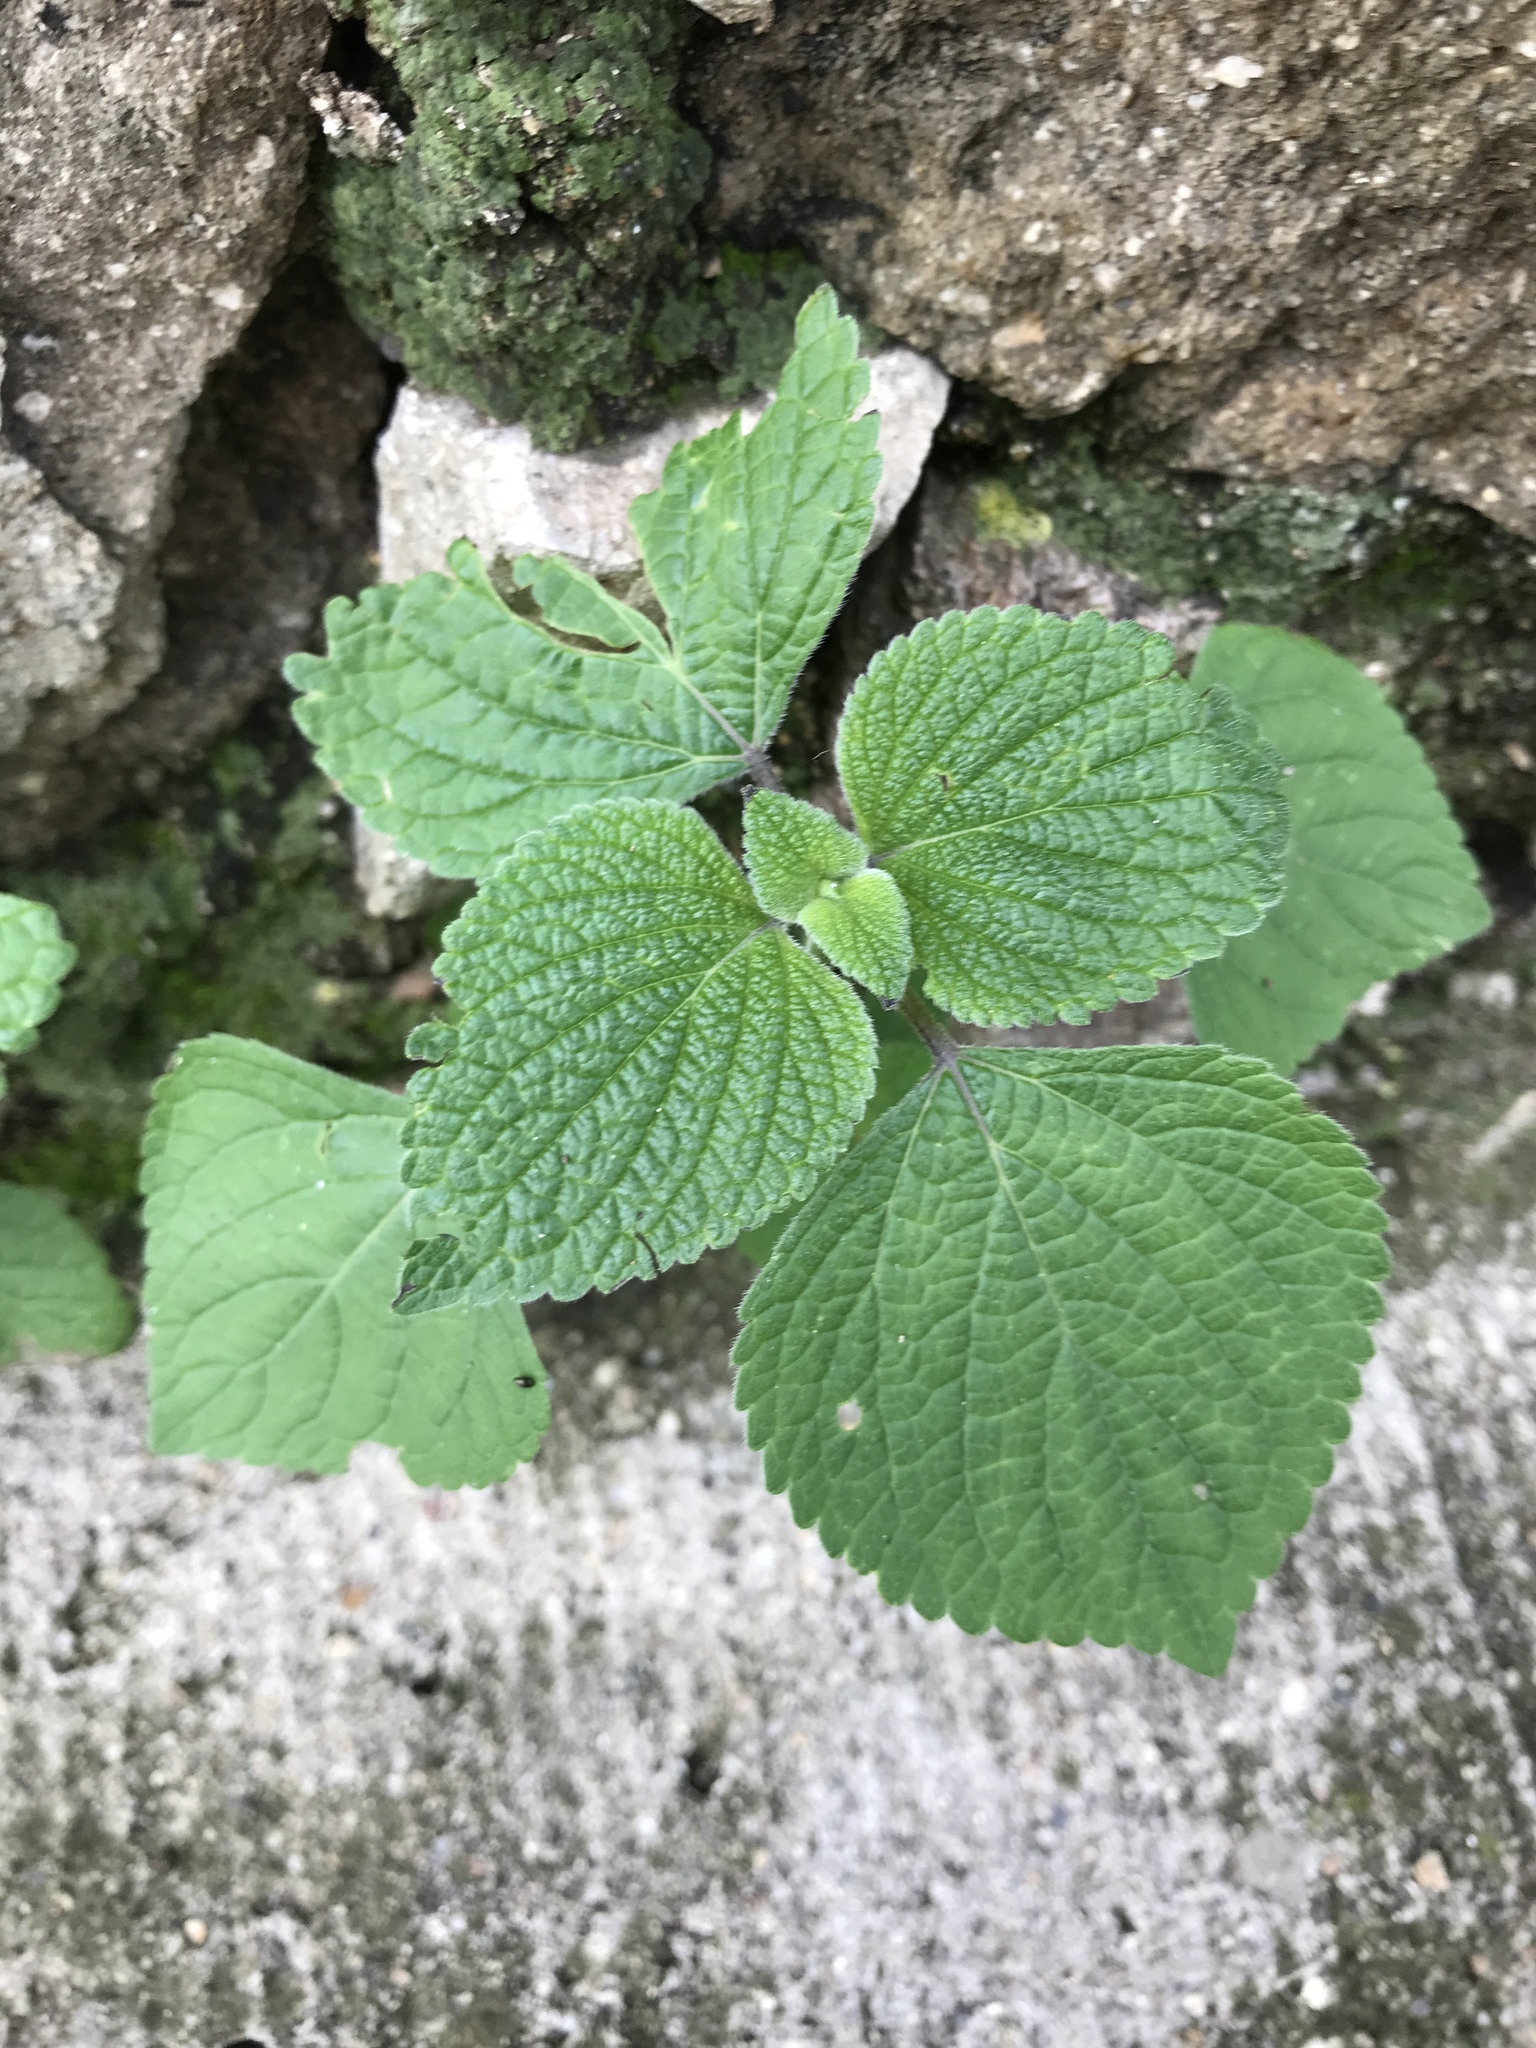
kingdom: Plantae
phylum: Tracheophyta
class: Magnoliopsida
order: Lamiales
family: Lamiaceae
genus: Salvia
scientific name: Salvia tiliifolia
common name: Lindenleaf sage
